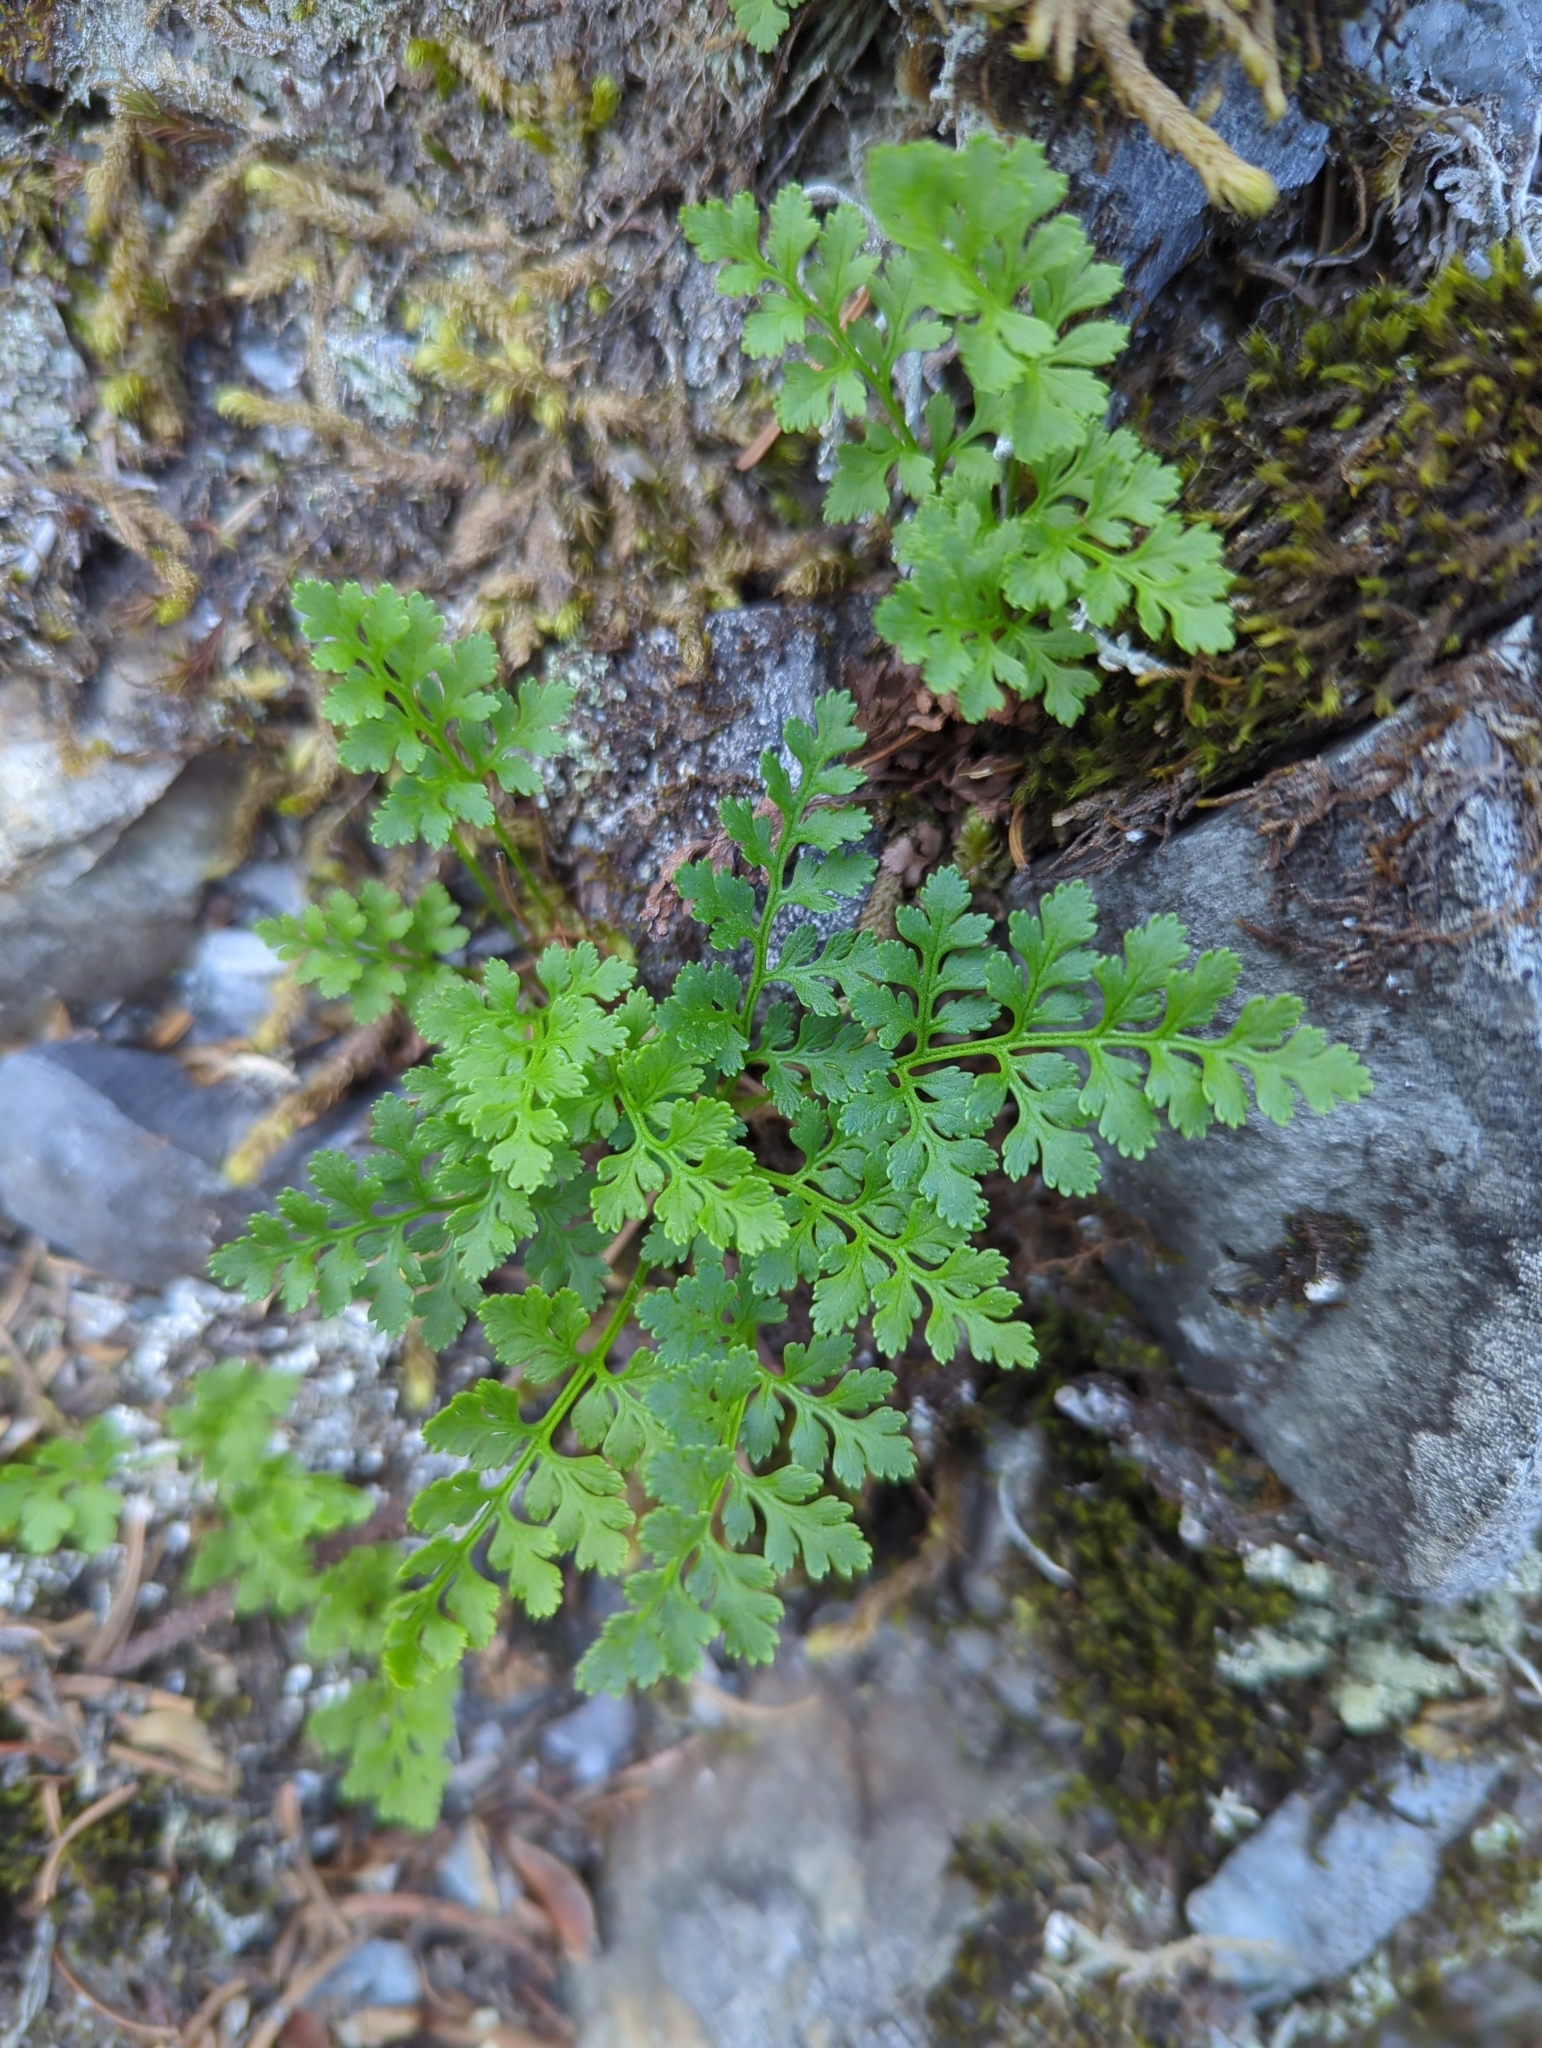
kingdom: Plantae
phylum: Tracheophyta
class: Polypodiopsida
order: Polypodiales
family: Pteridaceae
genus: Cryptogramma
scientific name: Cryptogramma acrostichoides
